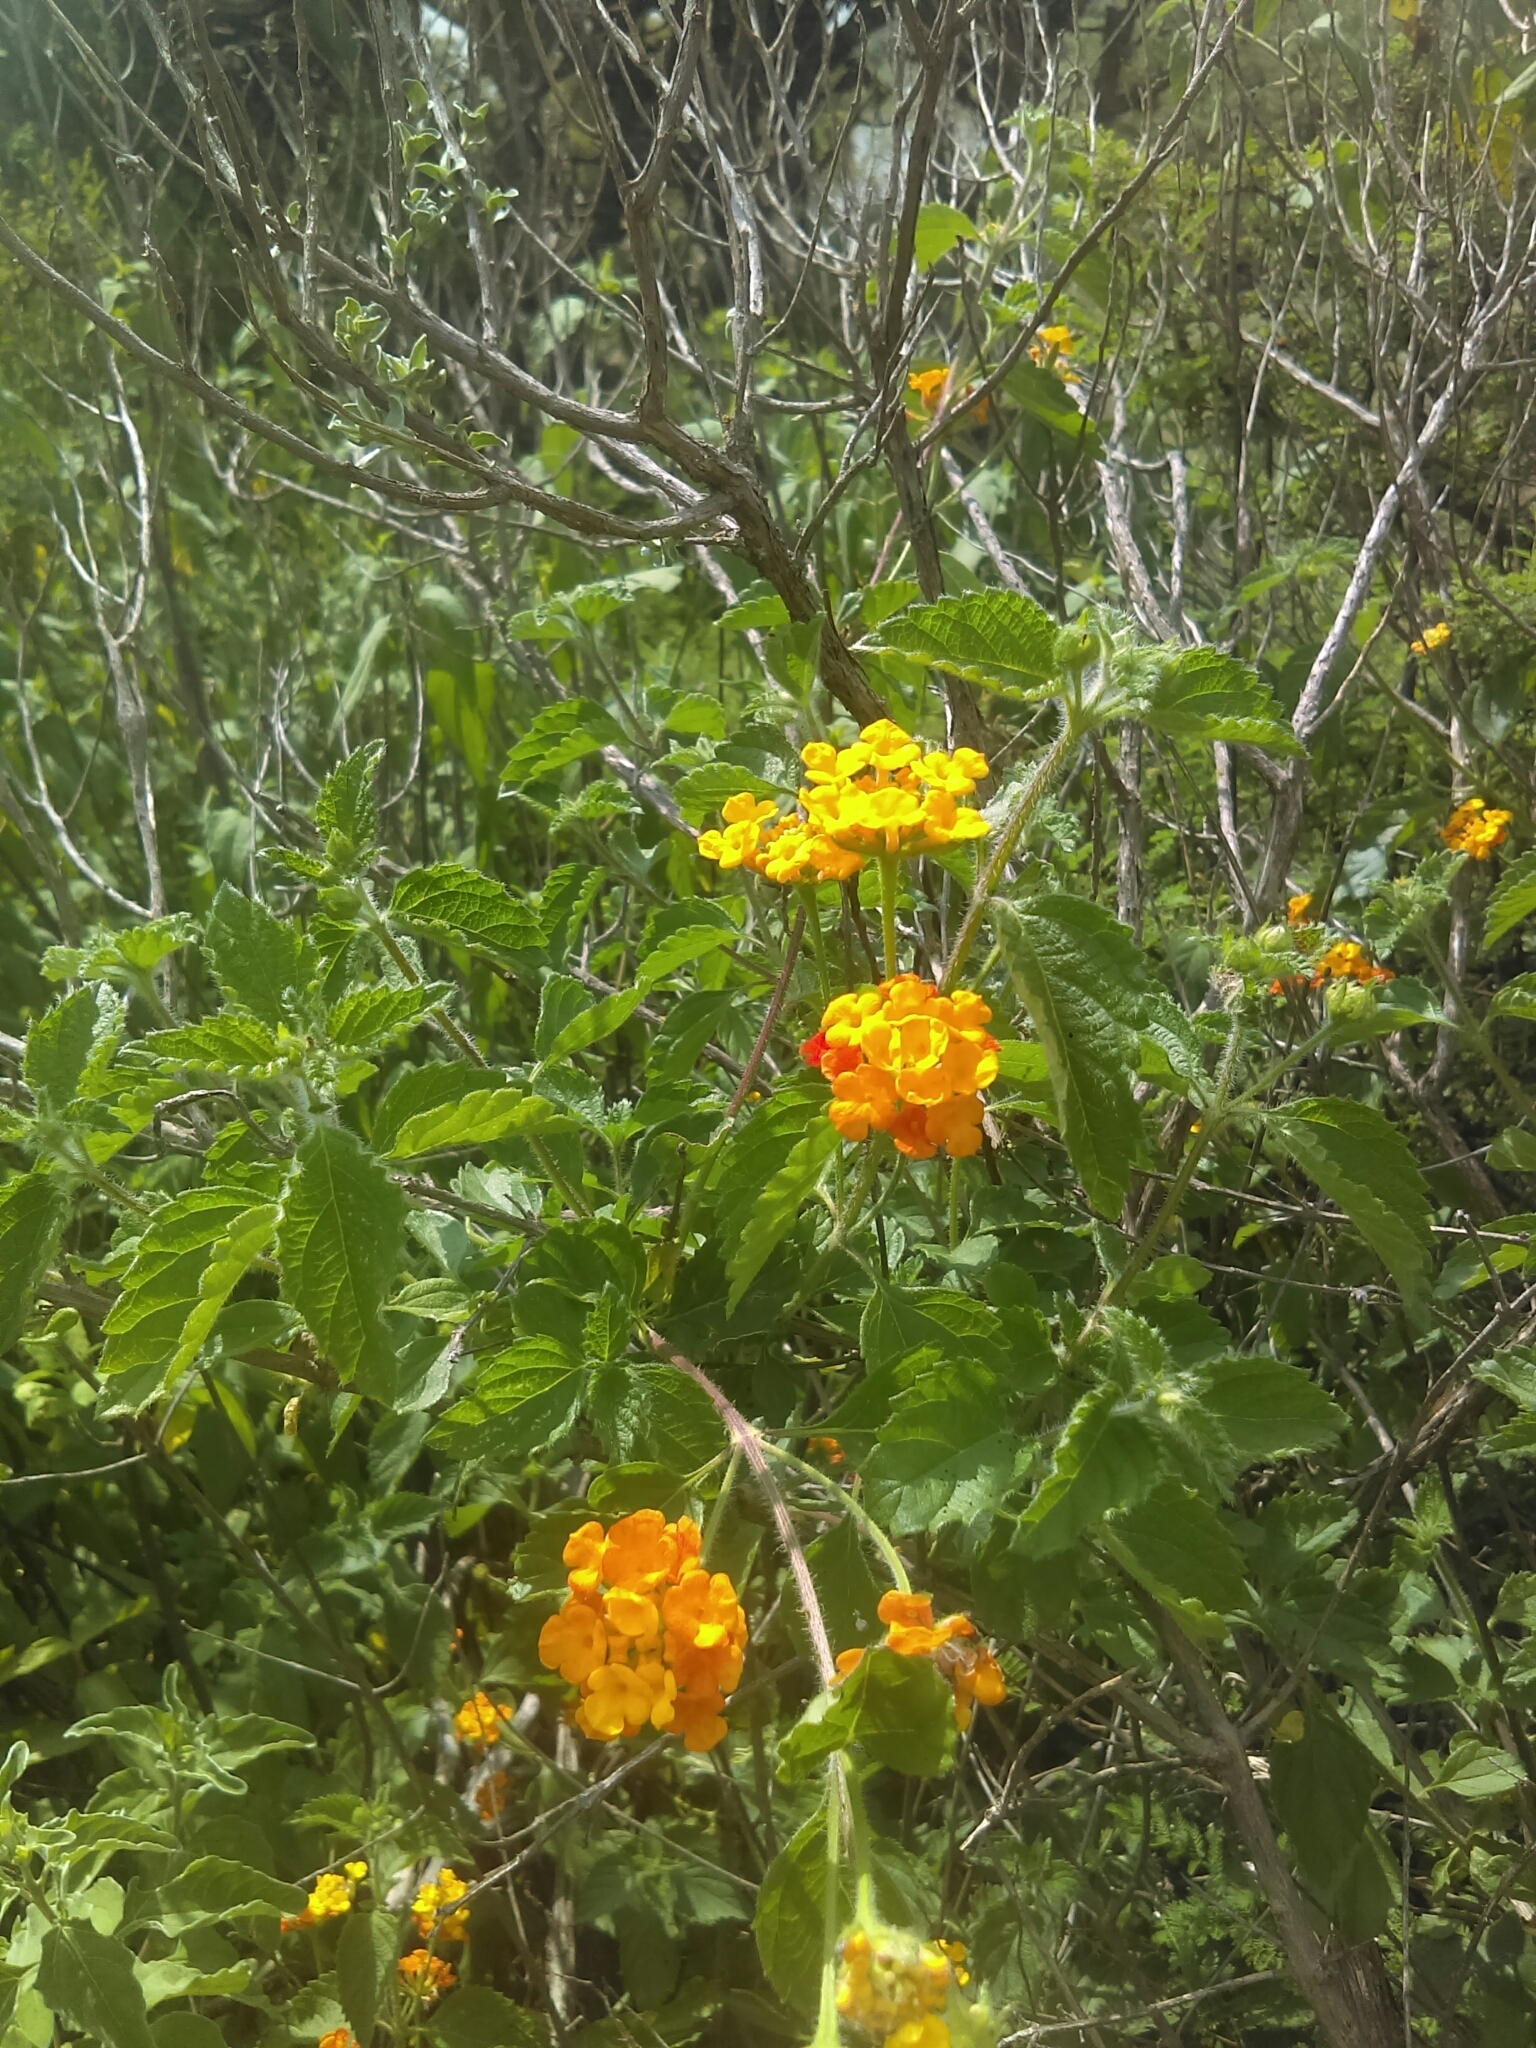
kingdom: Plantae
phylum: Tracheophyta
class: Magnoliopsida
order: Lamiales
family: Verbenaceae
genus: Lantana
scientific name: Lantana camara
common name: Lantana
